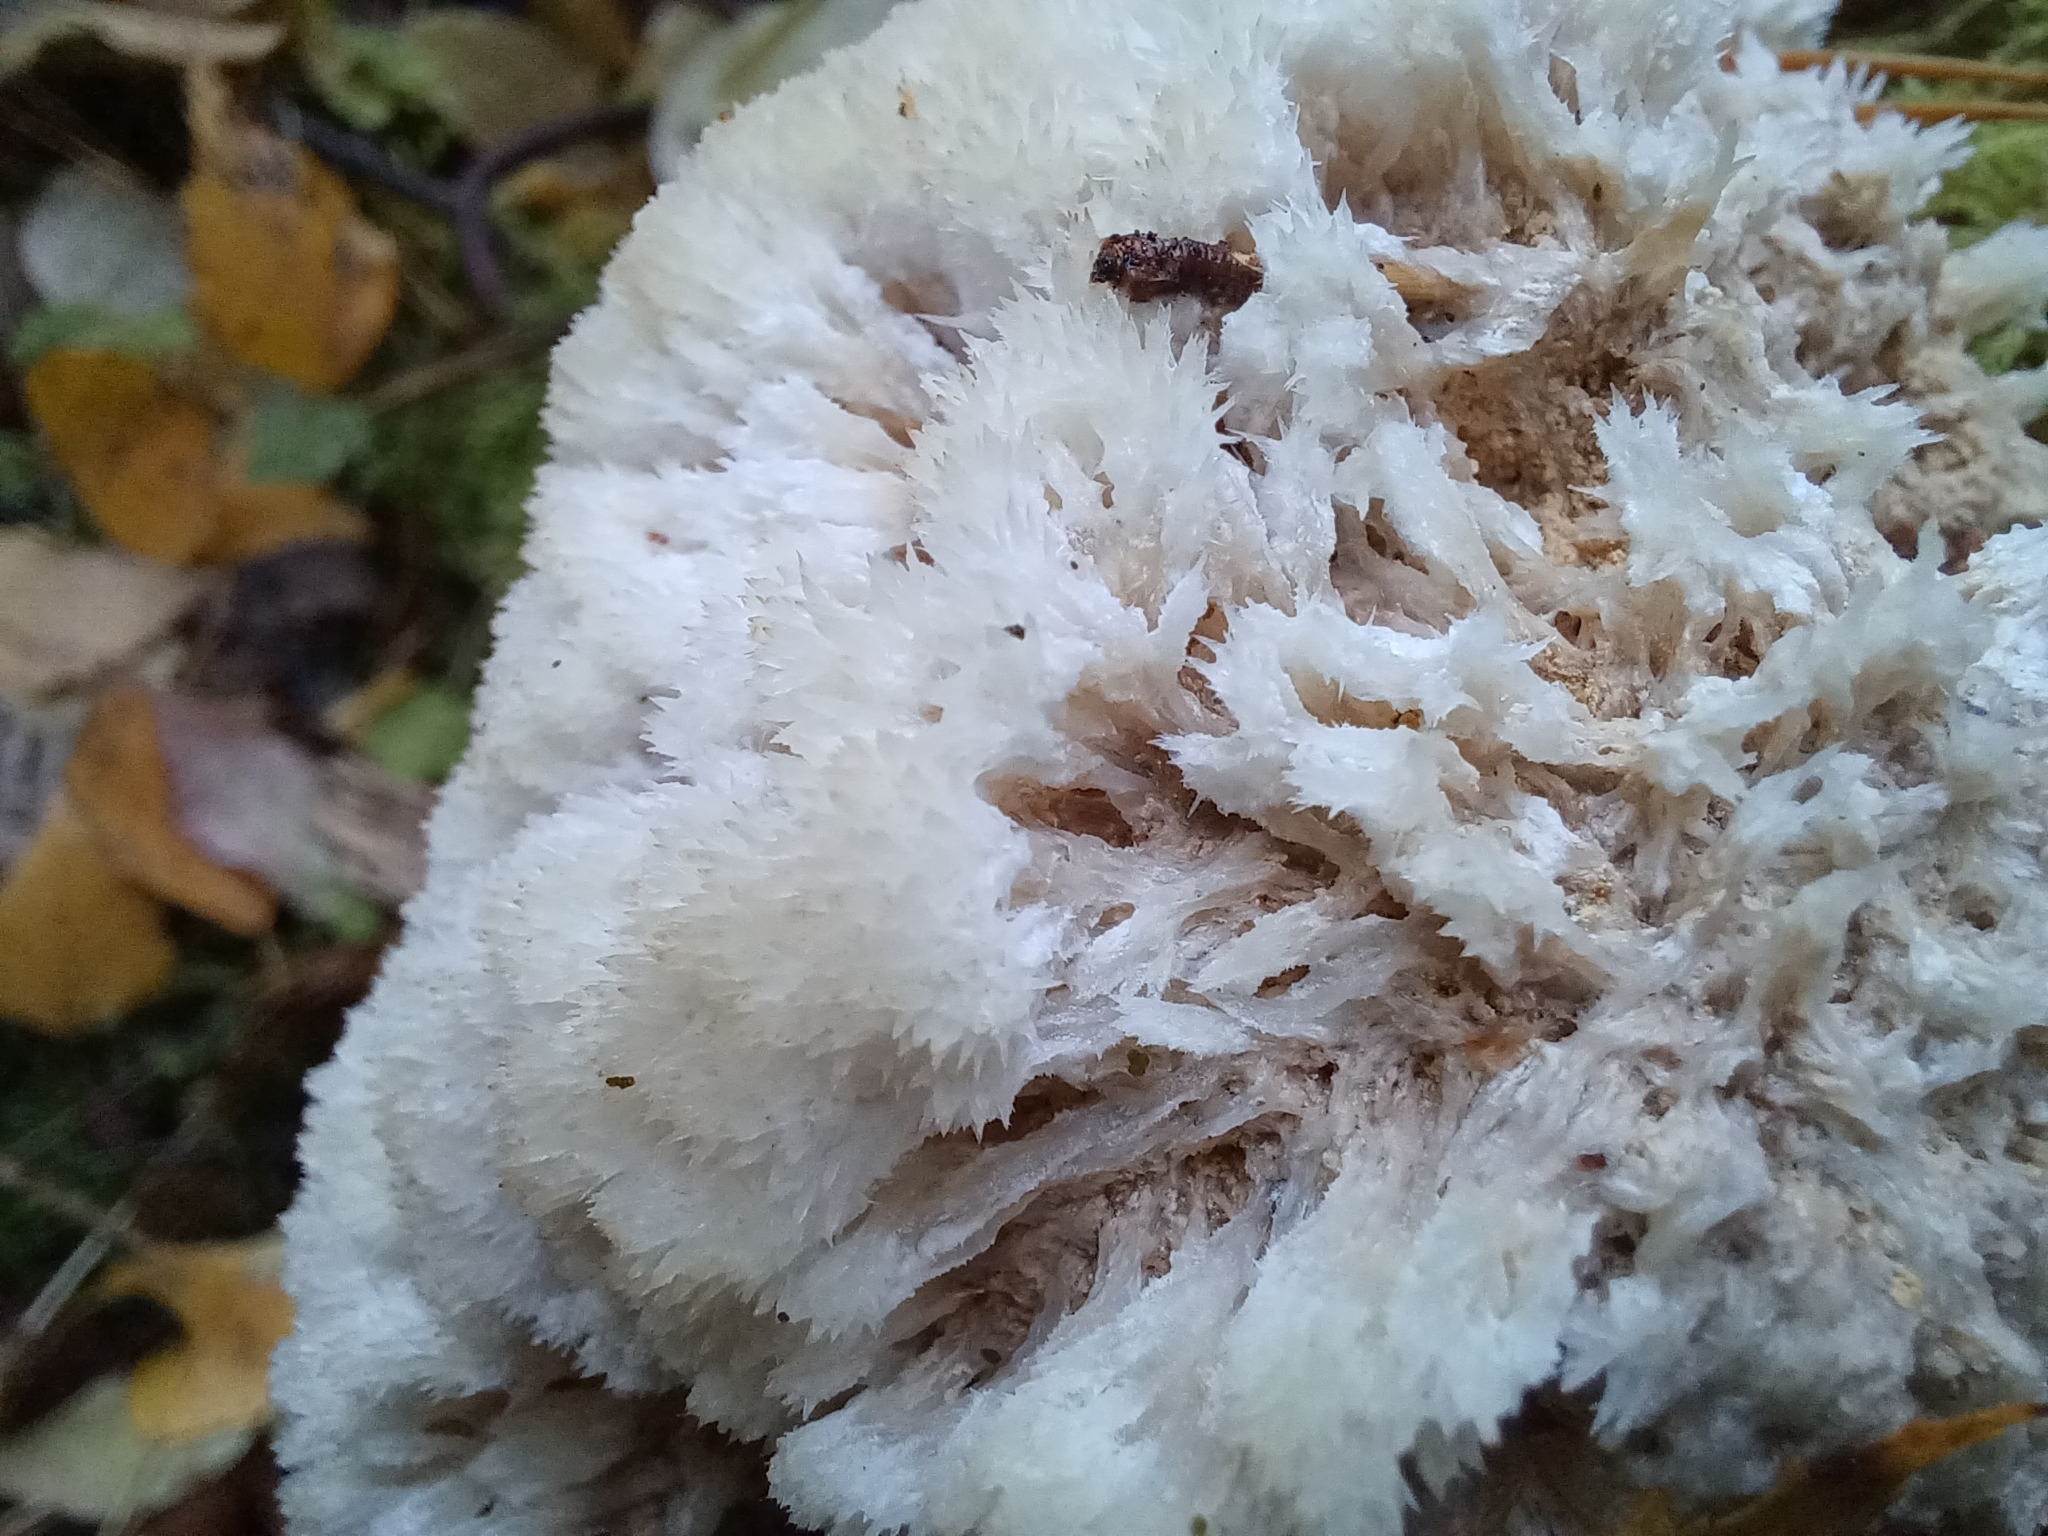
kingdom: Fungi
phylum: Basidiomycota
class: Agaricomycetes
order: Polyporales
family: Dacryobolaceae
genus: Postia
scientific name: Postia ptychogaster
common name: Powderpuff bracket
